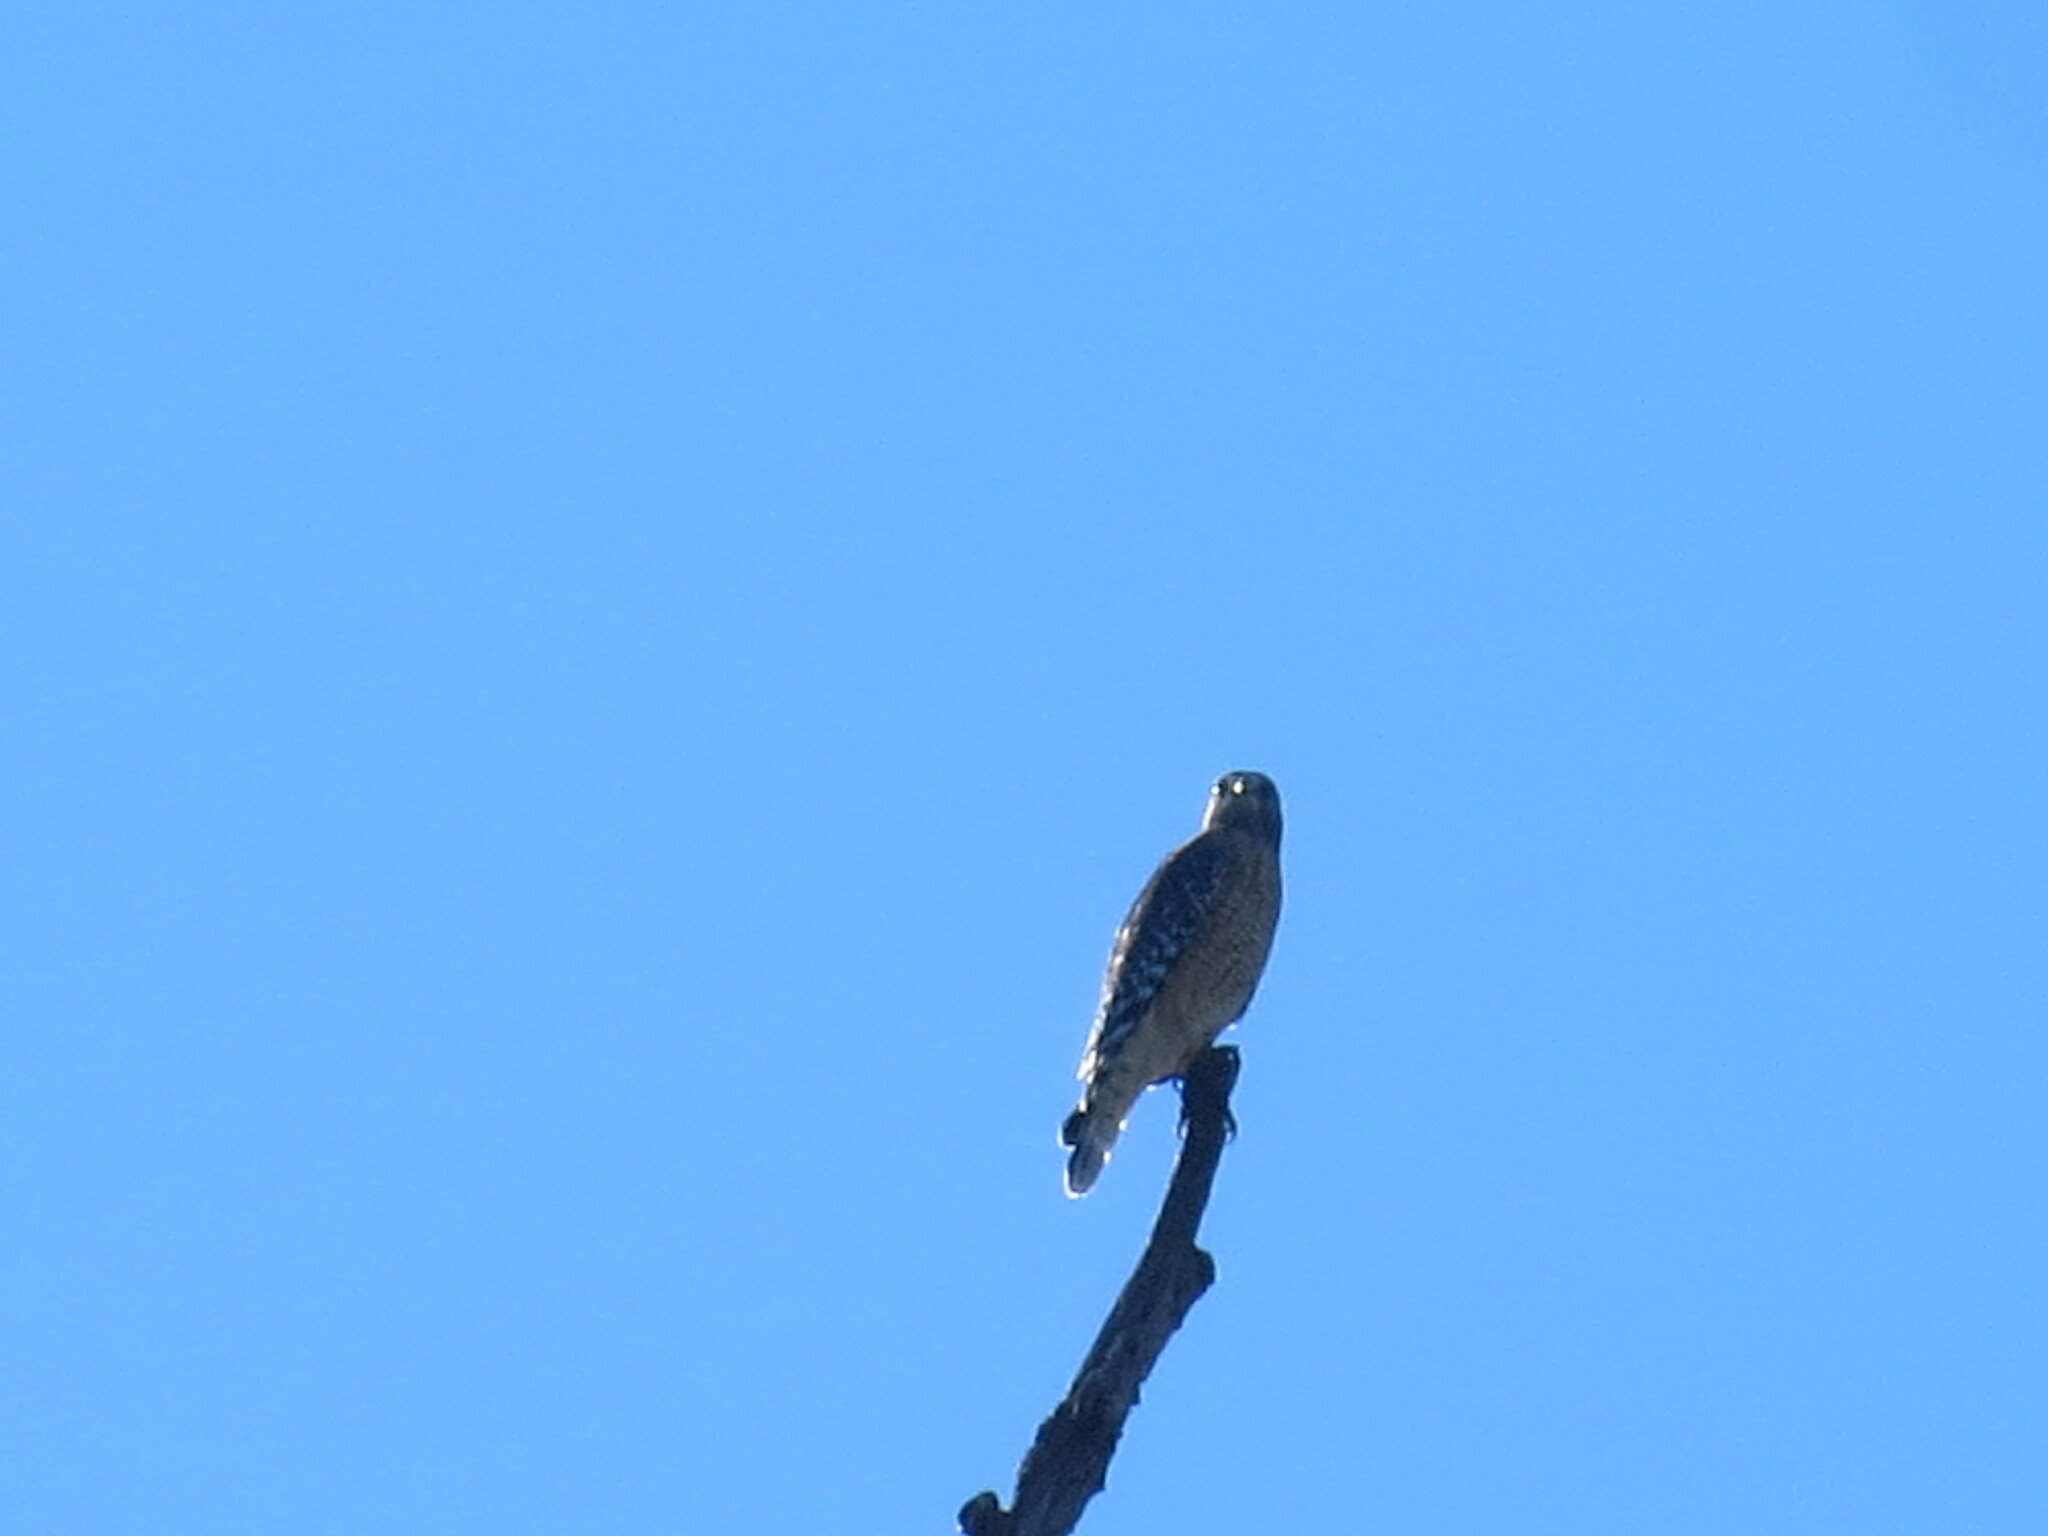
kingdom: Animalia
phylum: Chordata
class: Aves
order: Accipitriformes
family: Accipitridae
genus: Buteo
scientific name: Buteo lineatus
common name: Red-shouldered hawk
